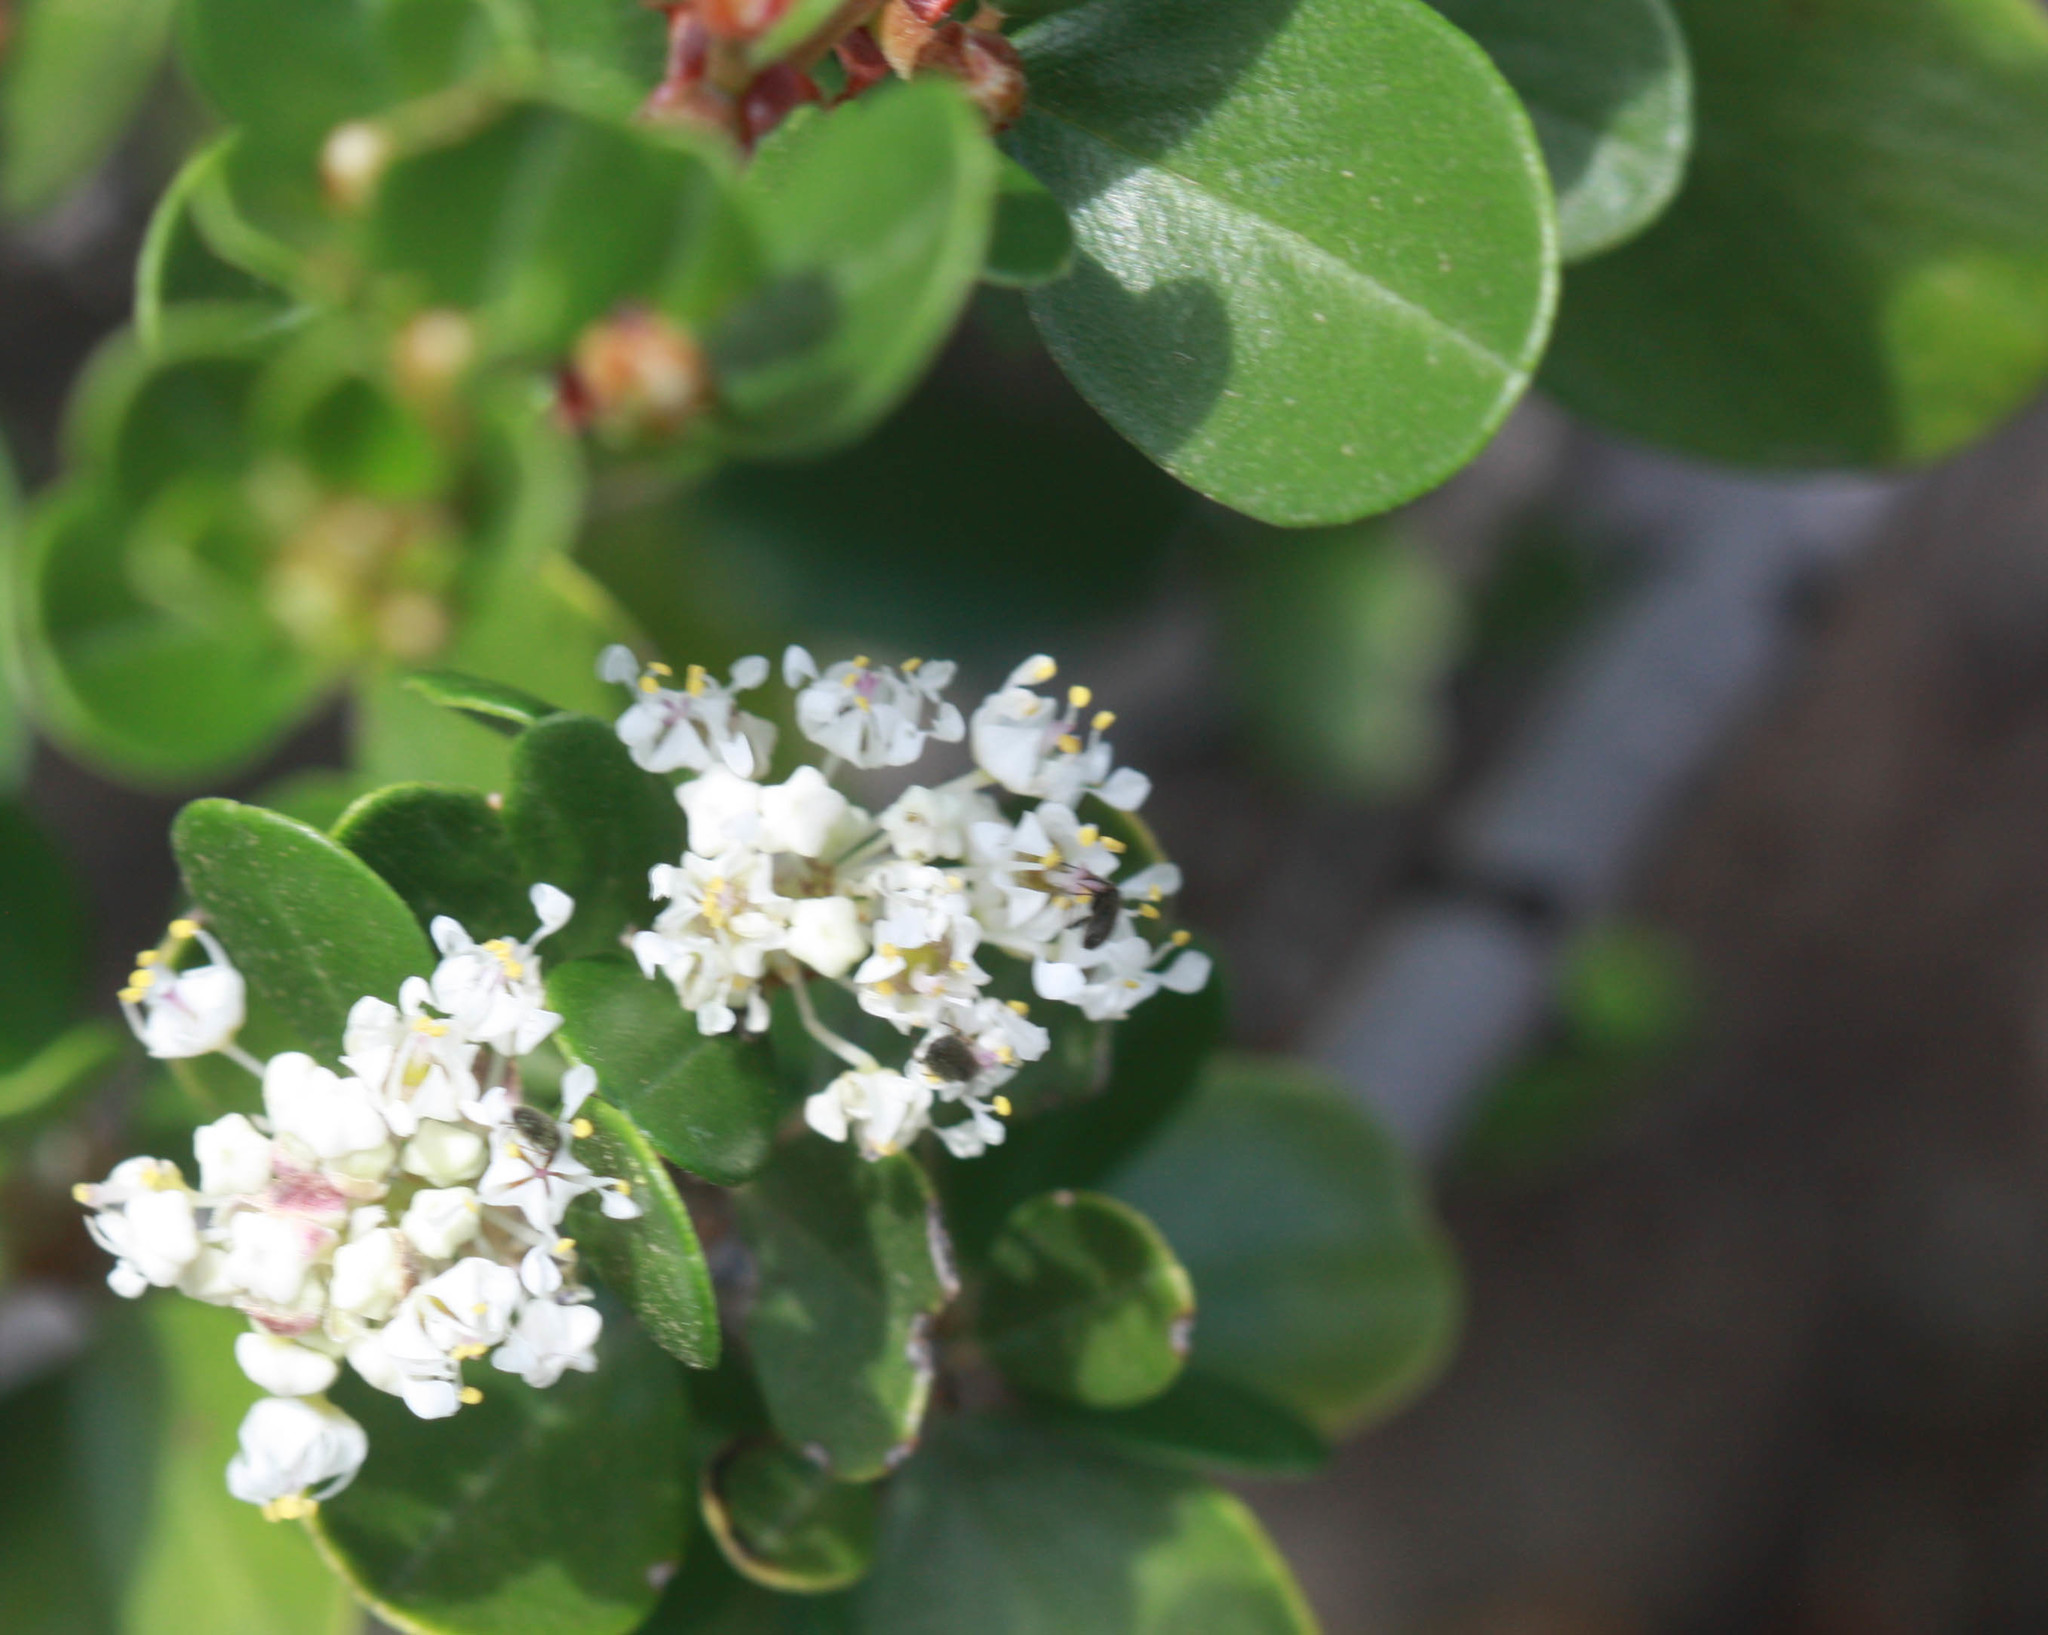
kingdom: Plantae
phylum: Tracheophyta
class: Magnoliopsida
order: Rosales
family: Rhamnaceae
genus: Ceanothus
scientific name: Ceanothus cuneatus
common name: Cuneate ceanothus
